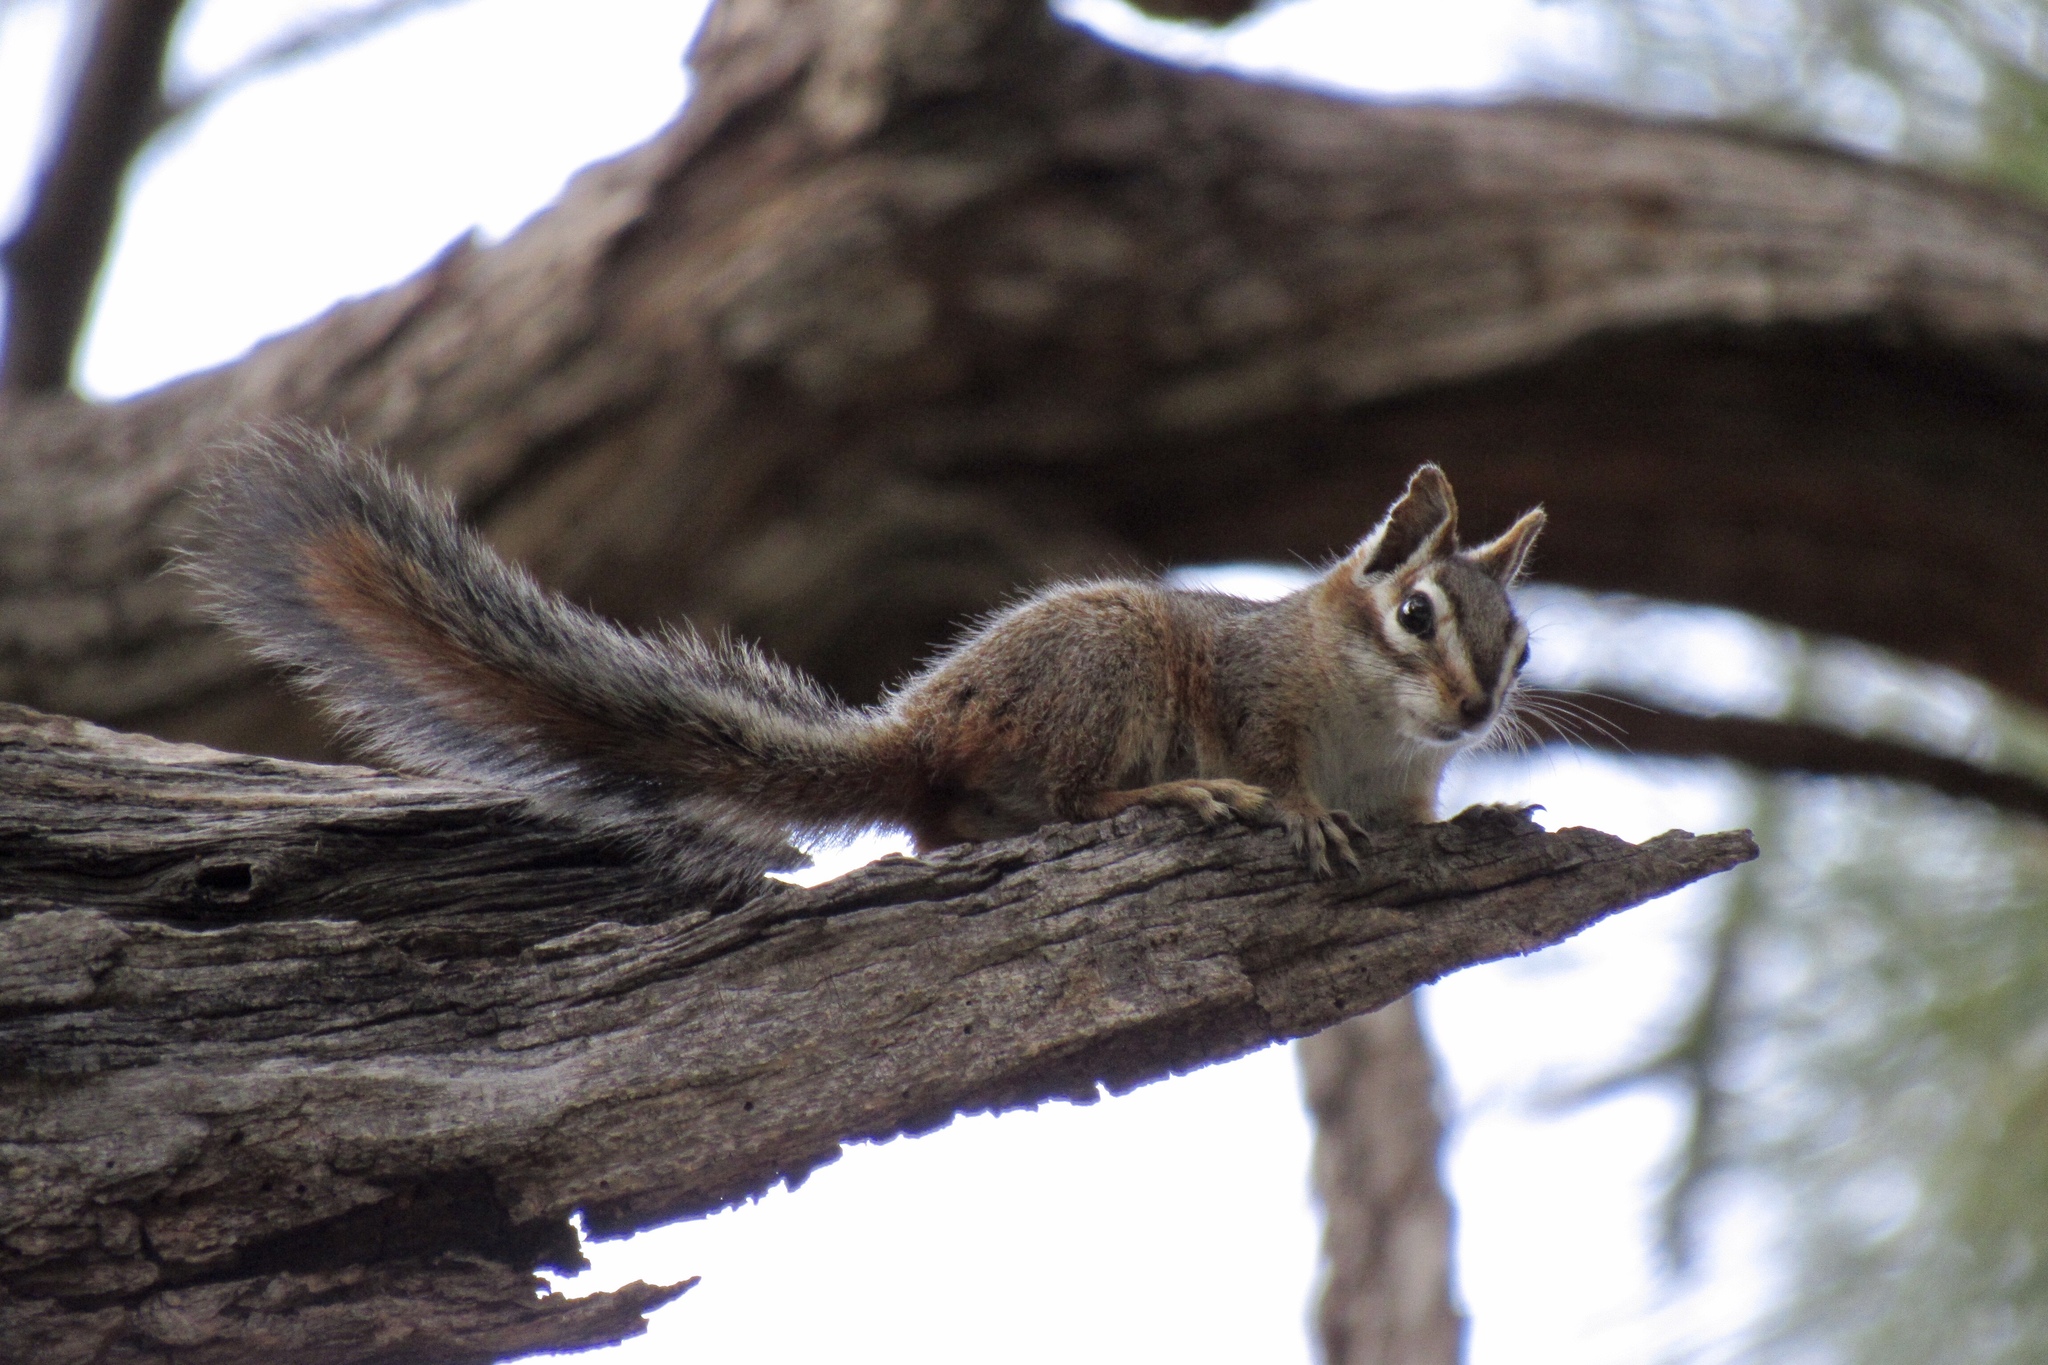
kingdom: Animalia
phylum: Chordata
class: Mammalia
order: Rodentia
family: Sciuridae
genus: Tamias
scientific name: Tamias dorsalis
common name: Cliff chipmunk
